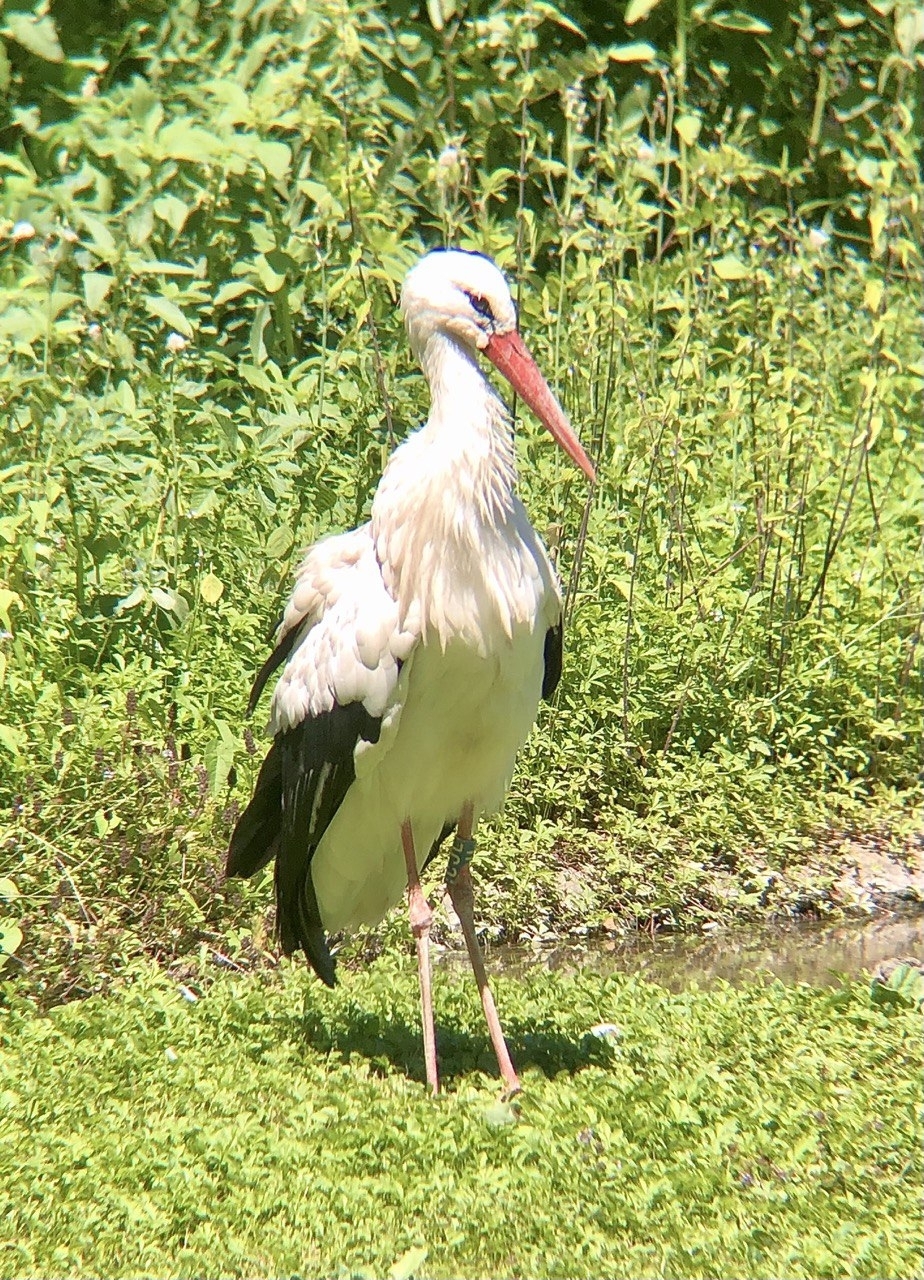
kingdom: Animalia
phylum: Chordata
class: Aves
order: Ciconiiformes
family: Ciconiidae
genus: Ciconia
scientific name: Ciconia ciconia
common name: White stork
